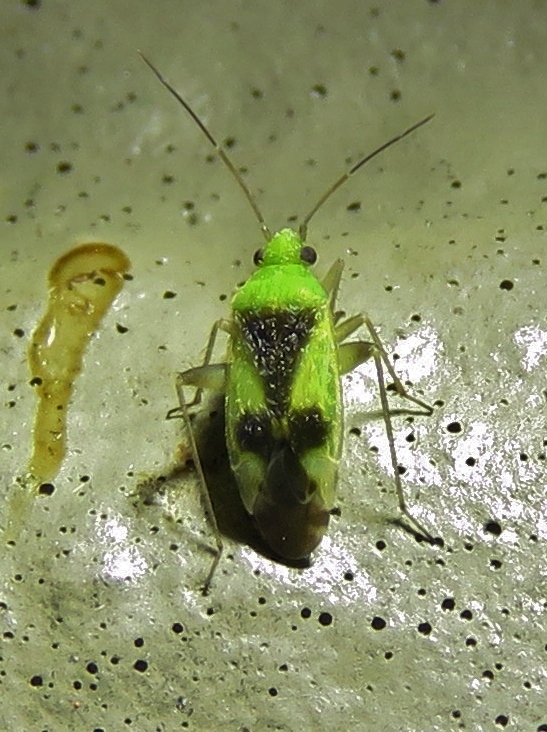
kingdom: Animalia
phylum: Arthropoda
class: Insecta
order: Hemiptera
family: Miridae
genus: Reuteroscopus
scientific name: Reuteroscopus ornatus
